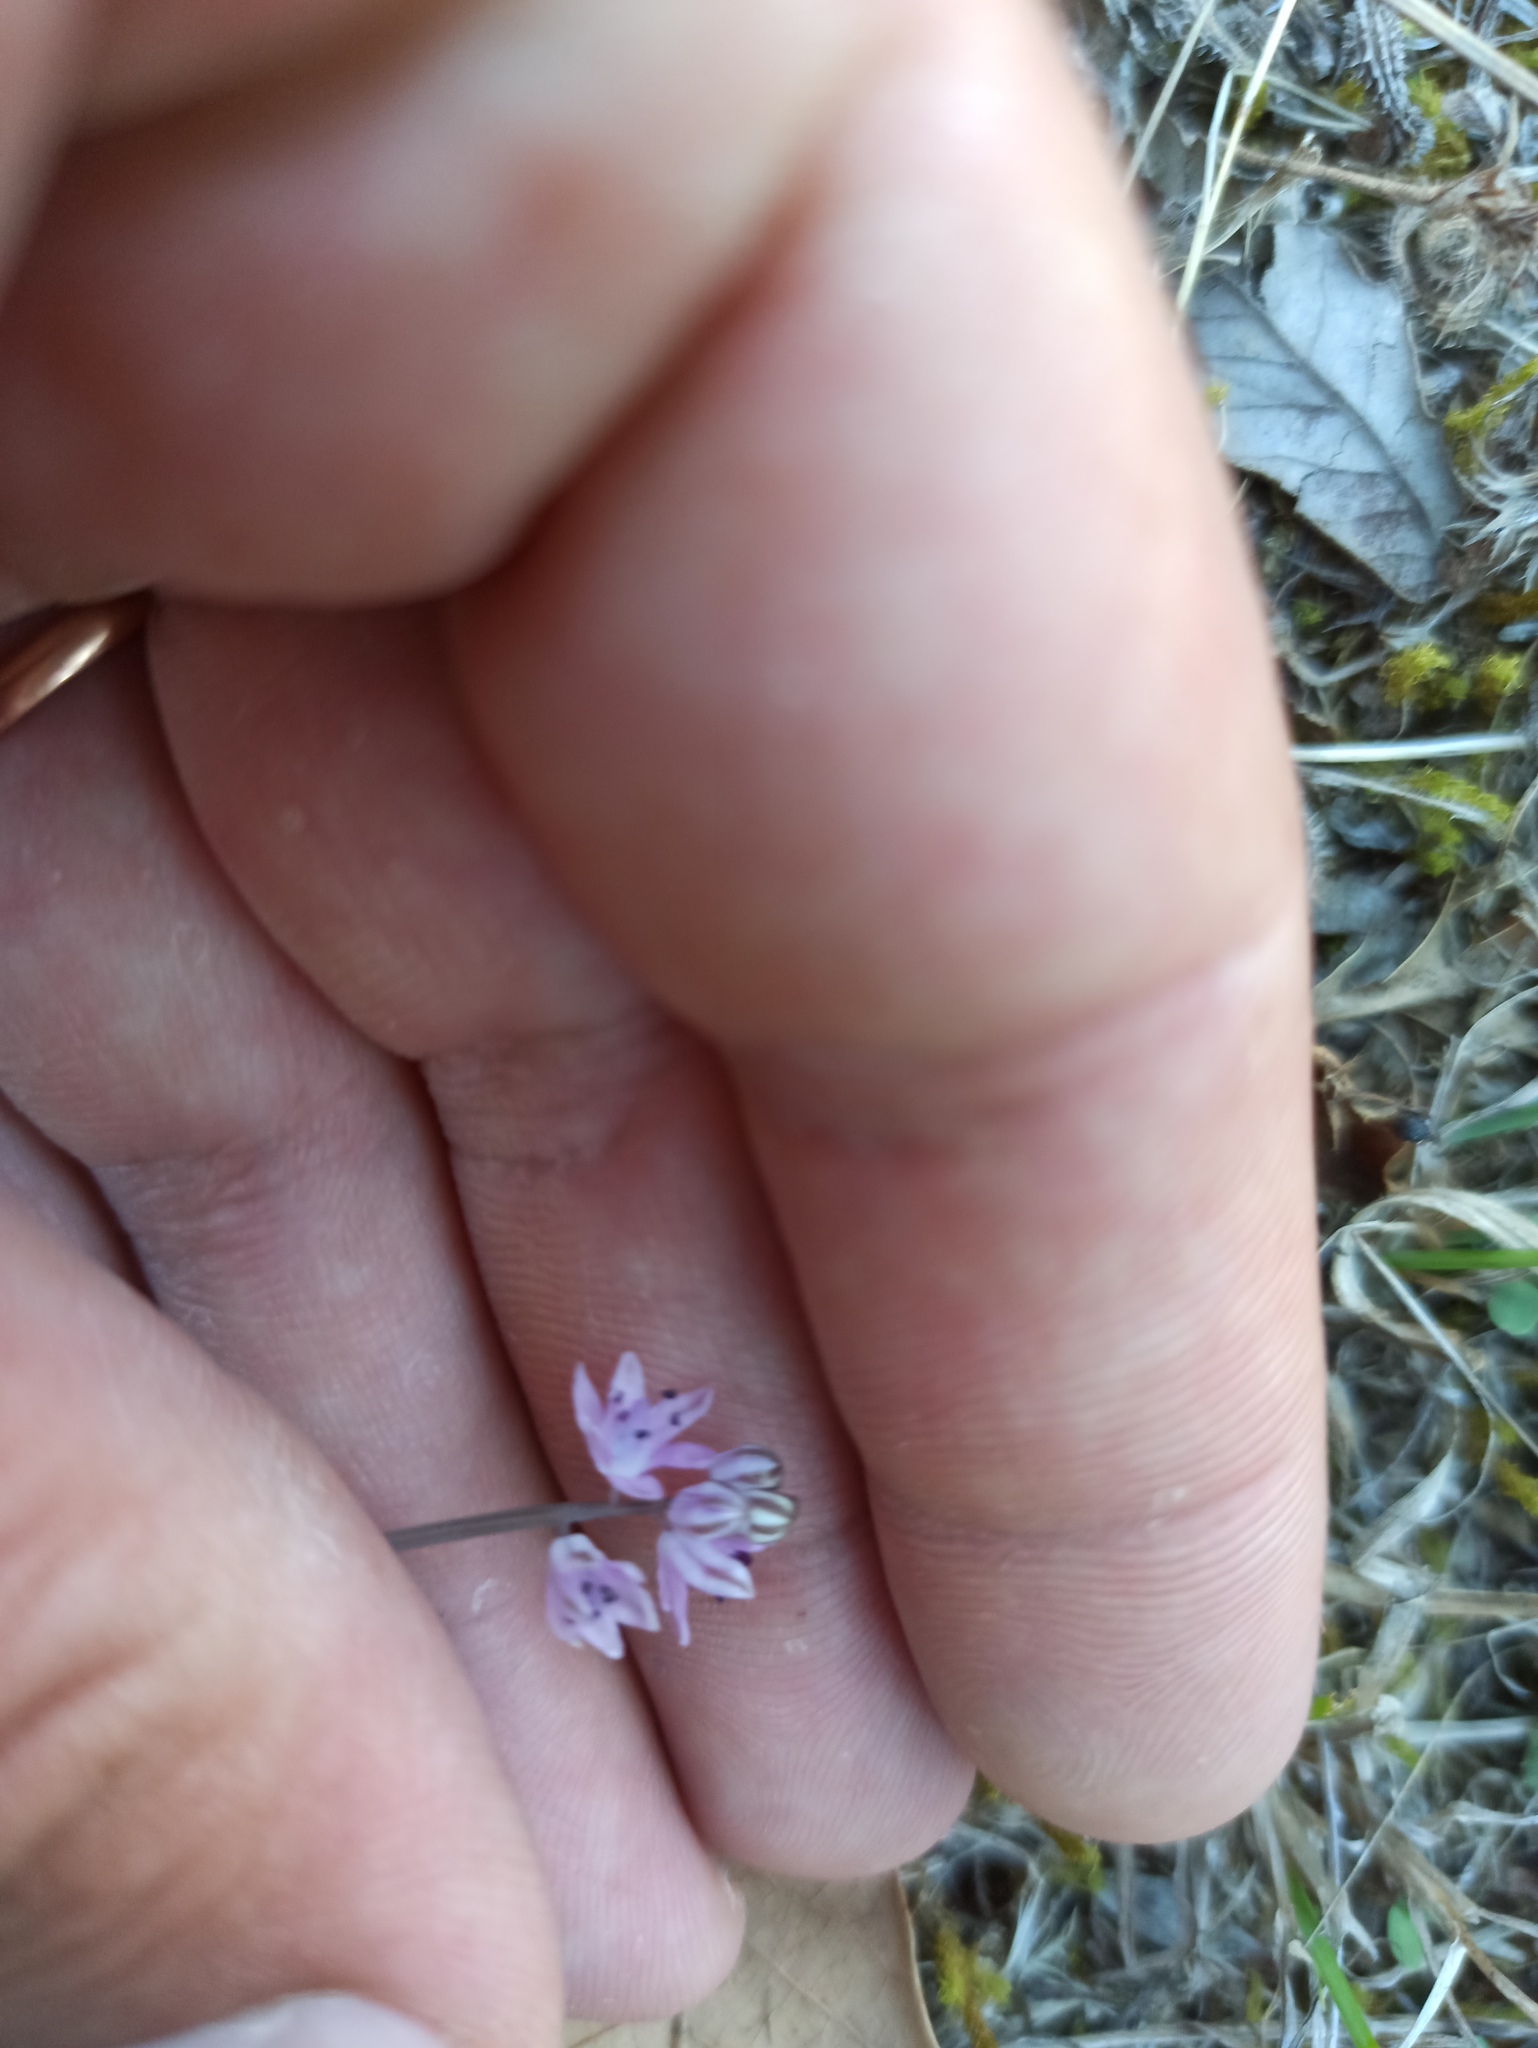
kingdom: Plantae
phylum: Tracheophyta
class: Liliopsida
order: Asparagales
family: Asparagaceae
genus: Prospero
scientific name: Prospero autumnale
